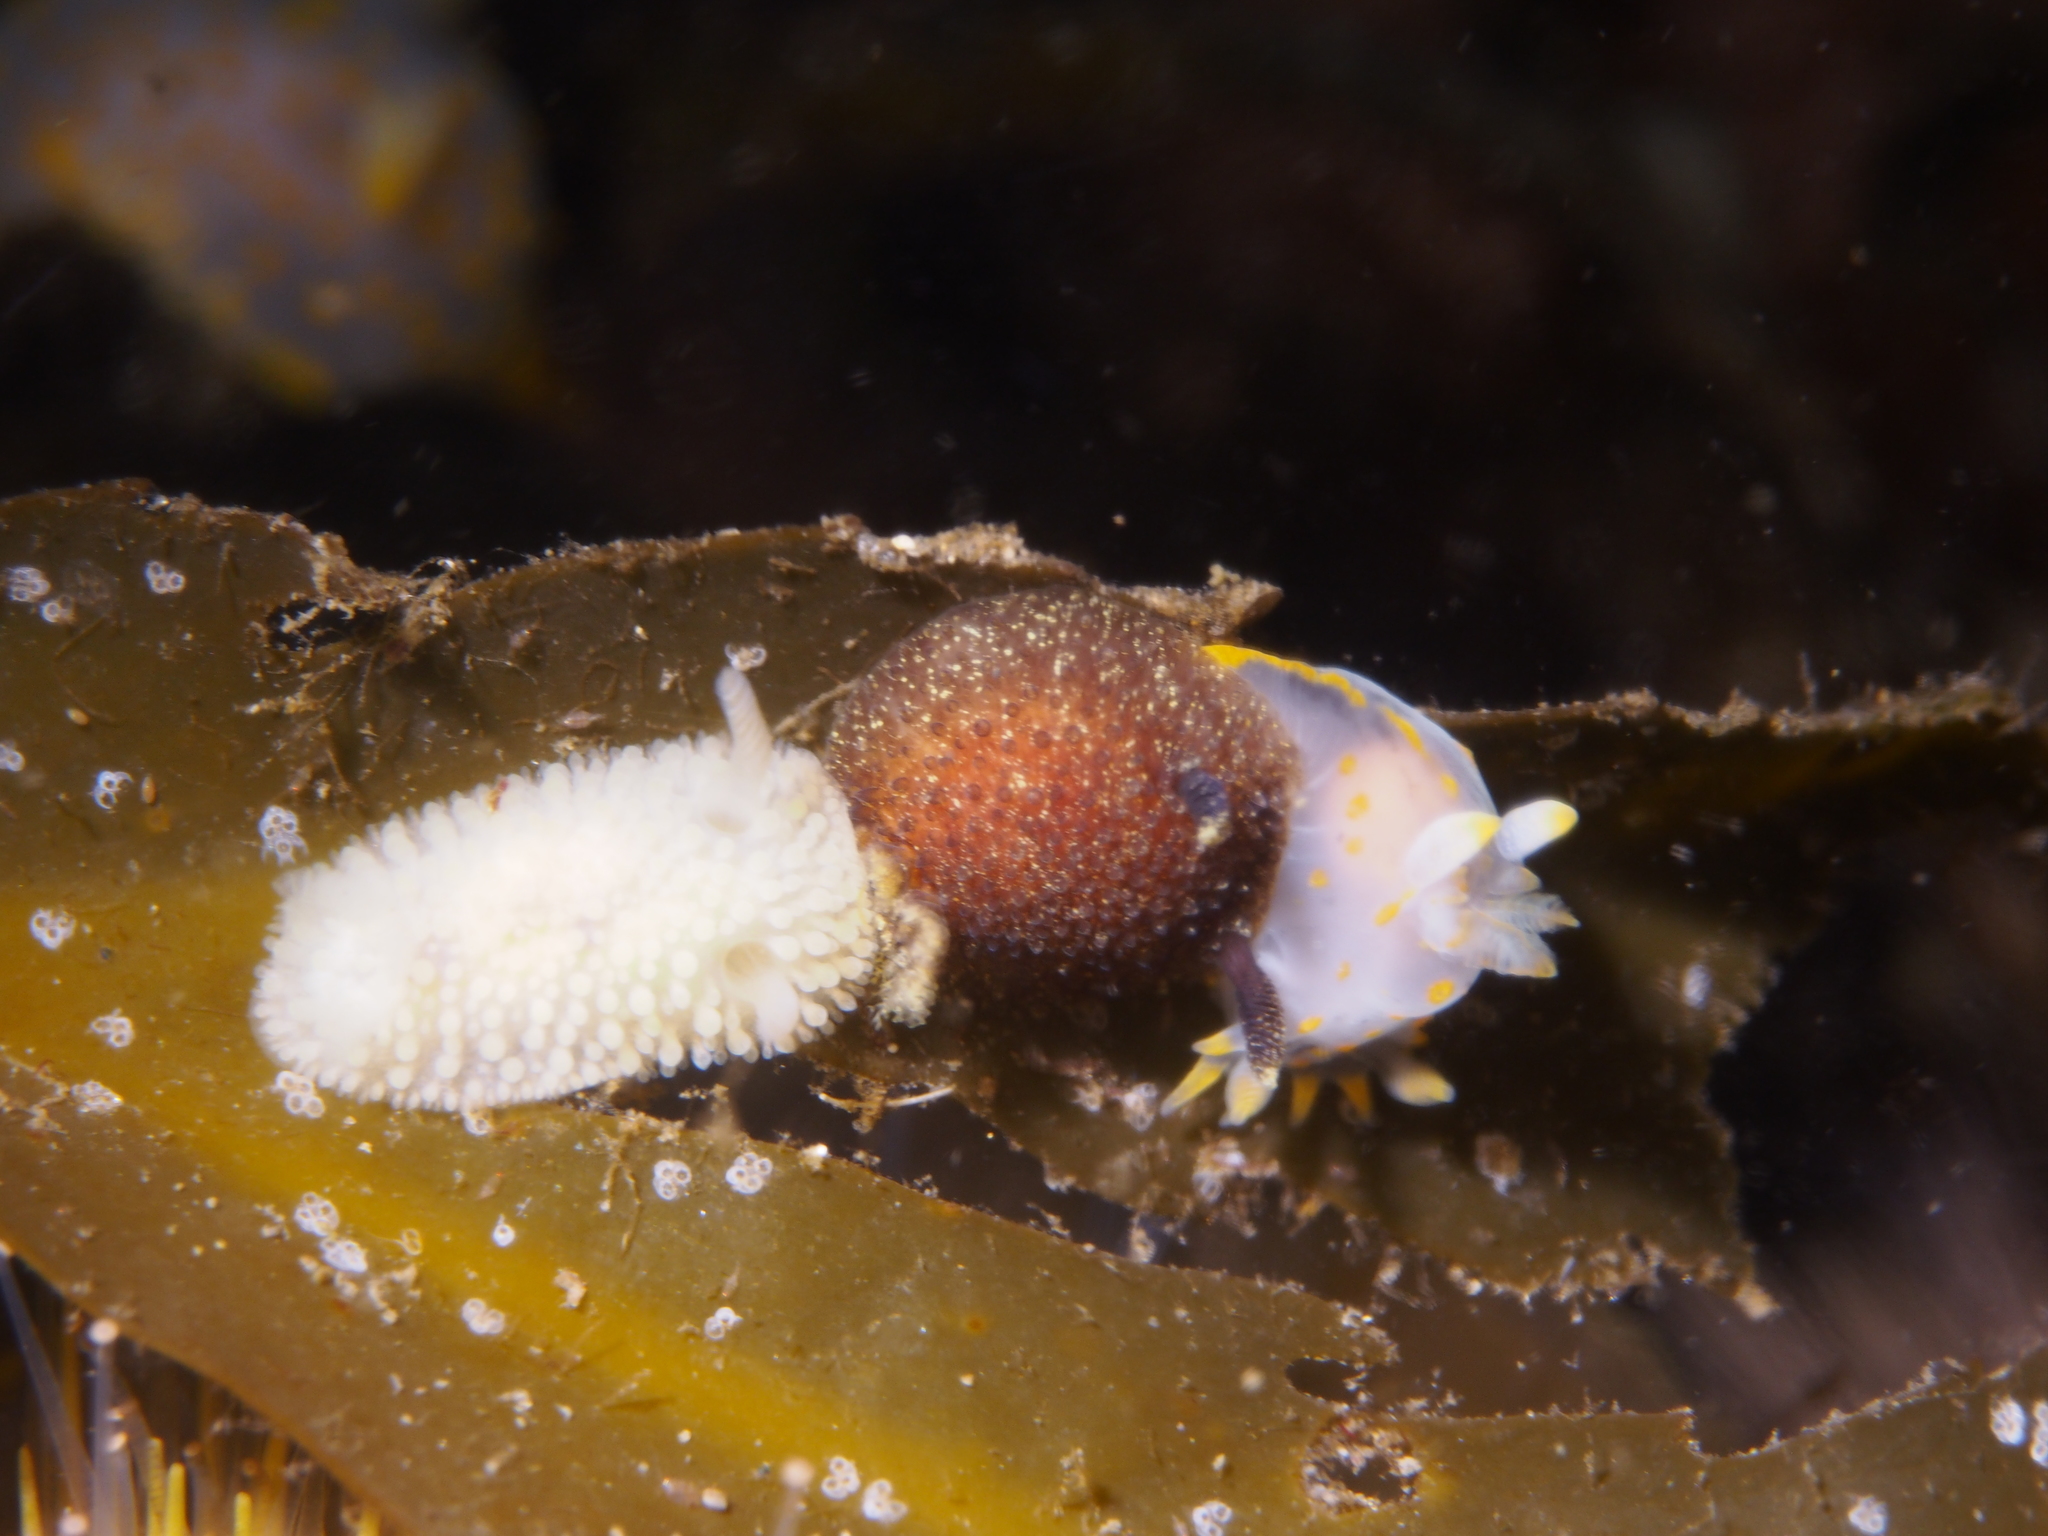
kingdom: Animalia
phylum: Mollusca
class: Gastropoda
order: Nudibranchia
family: Onchidorididae
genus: Acanthodoris
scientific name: Acanthodoris pilosa
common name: Hairy spiny doris
